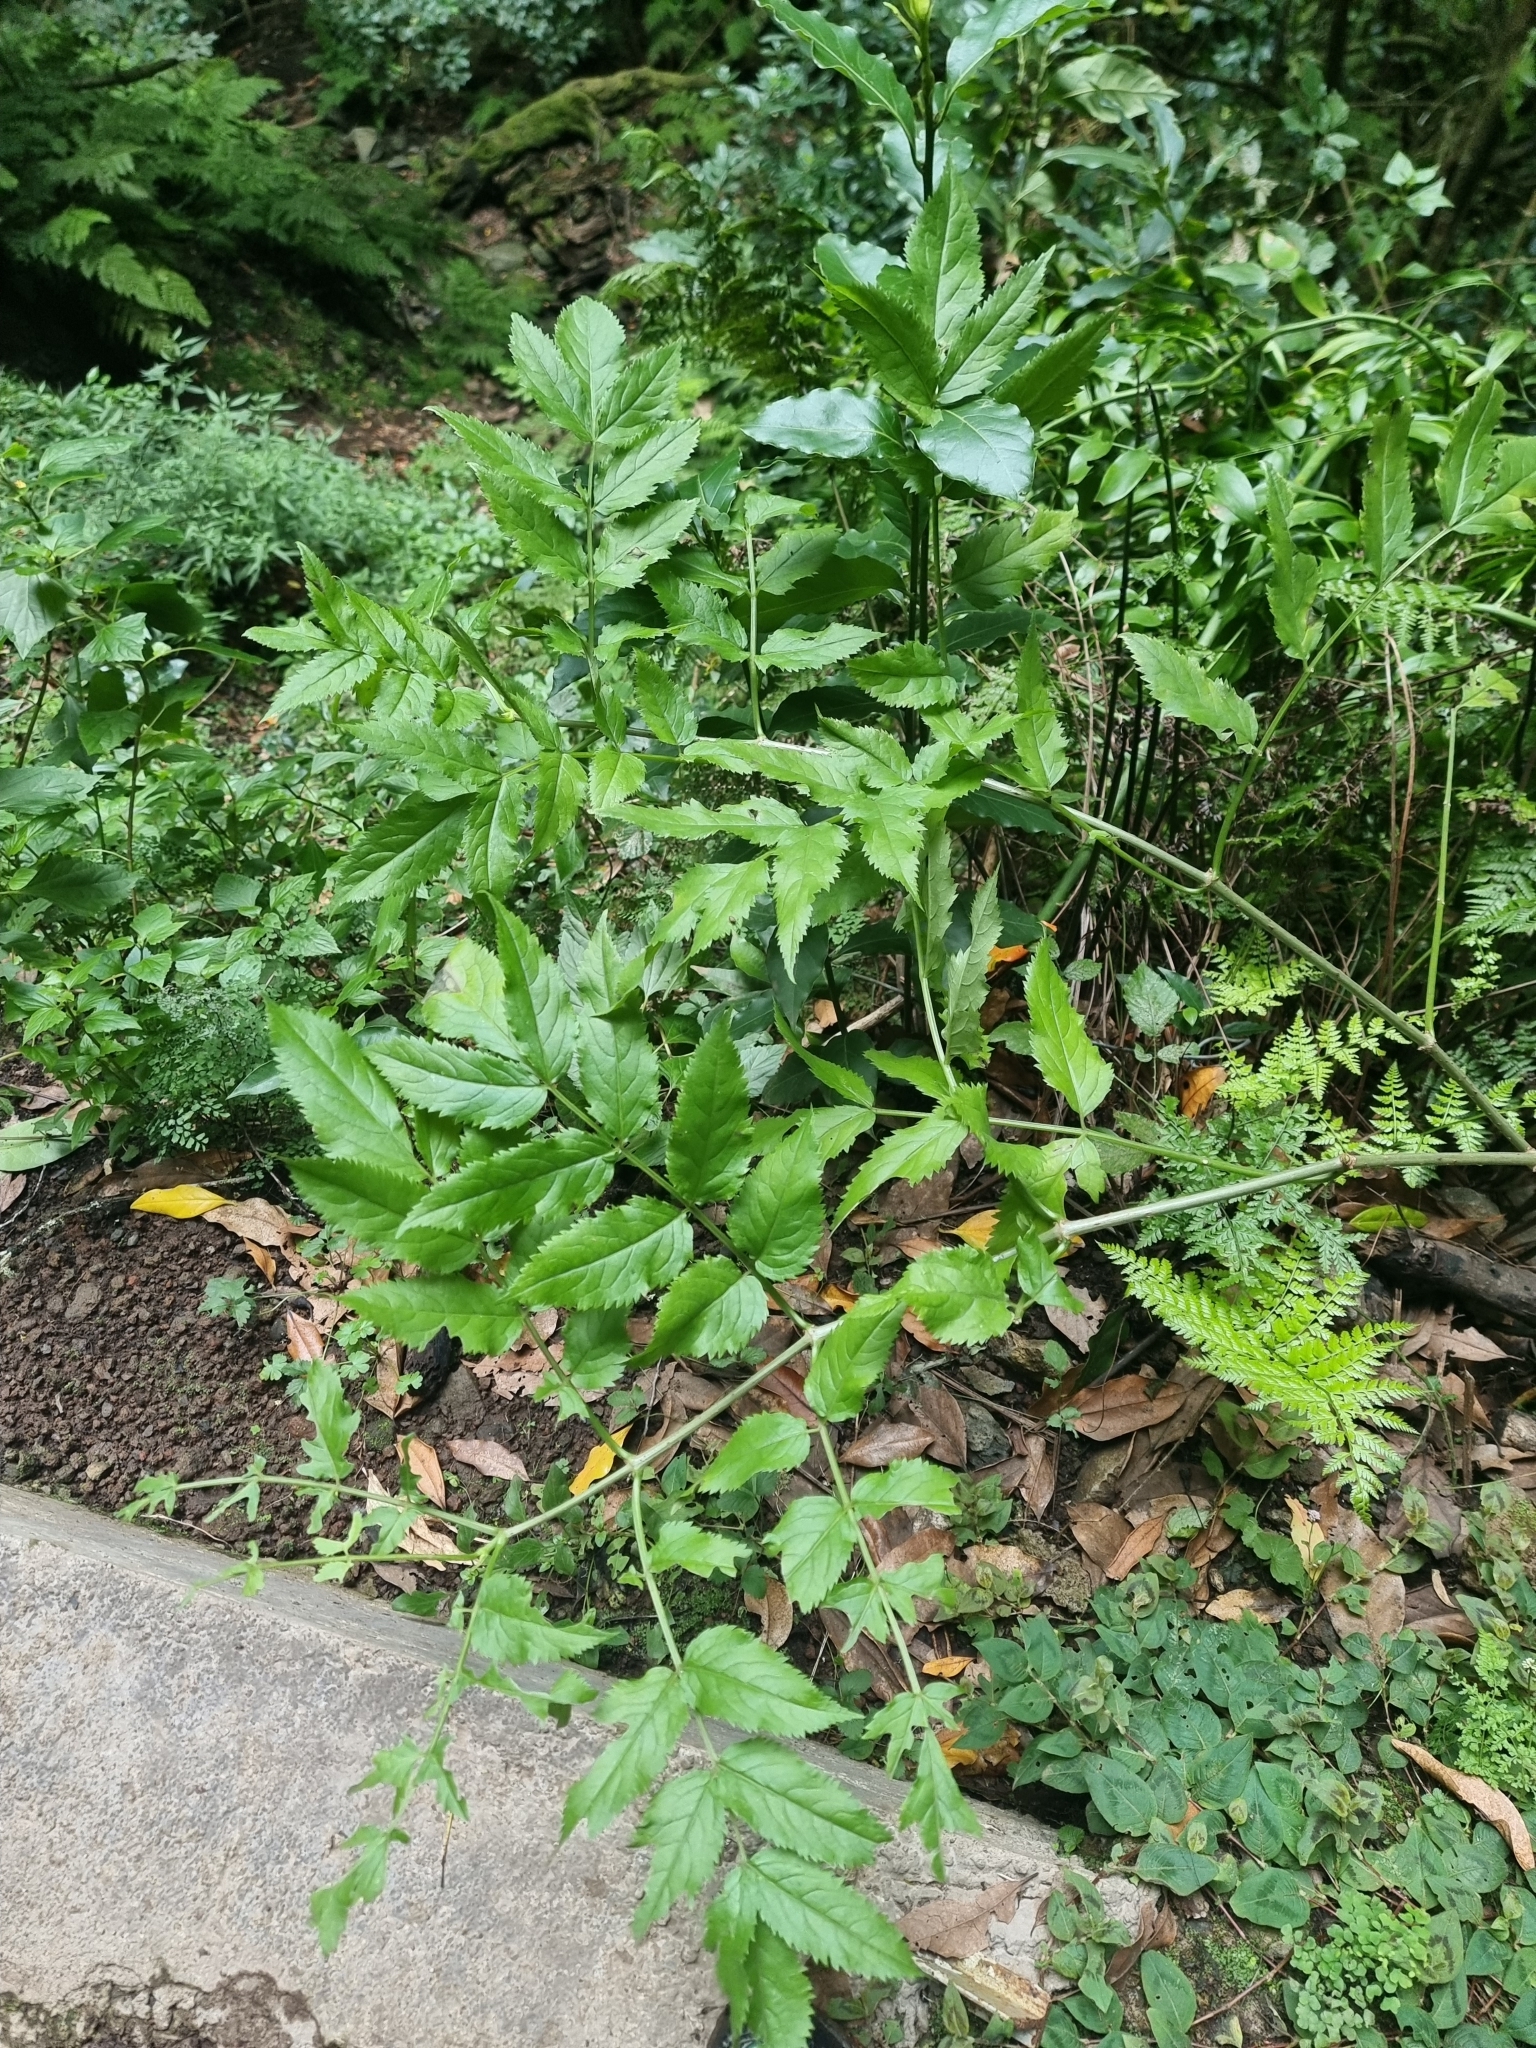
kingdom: Plantae
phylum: Tracheophyta
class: Magnoliopsida
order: Dipsacales
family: Viburnaceae
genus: Sambucus
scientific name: Sambucus lanceolata
